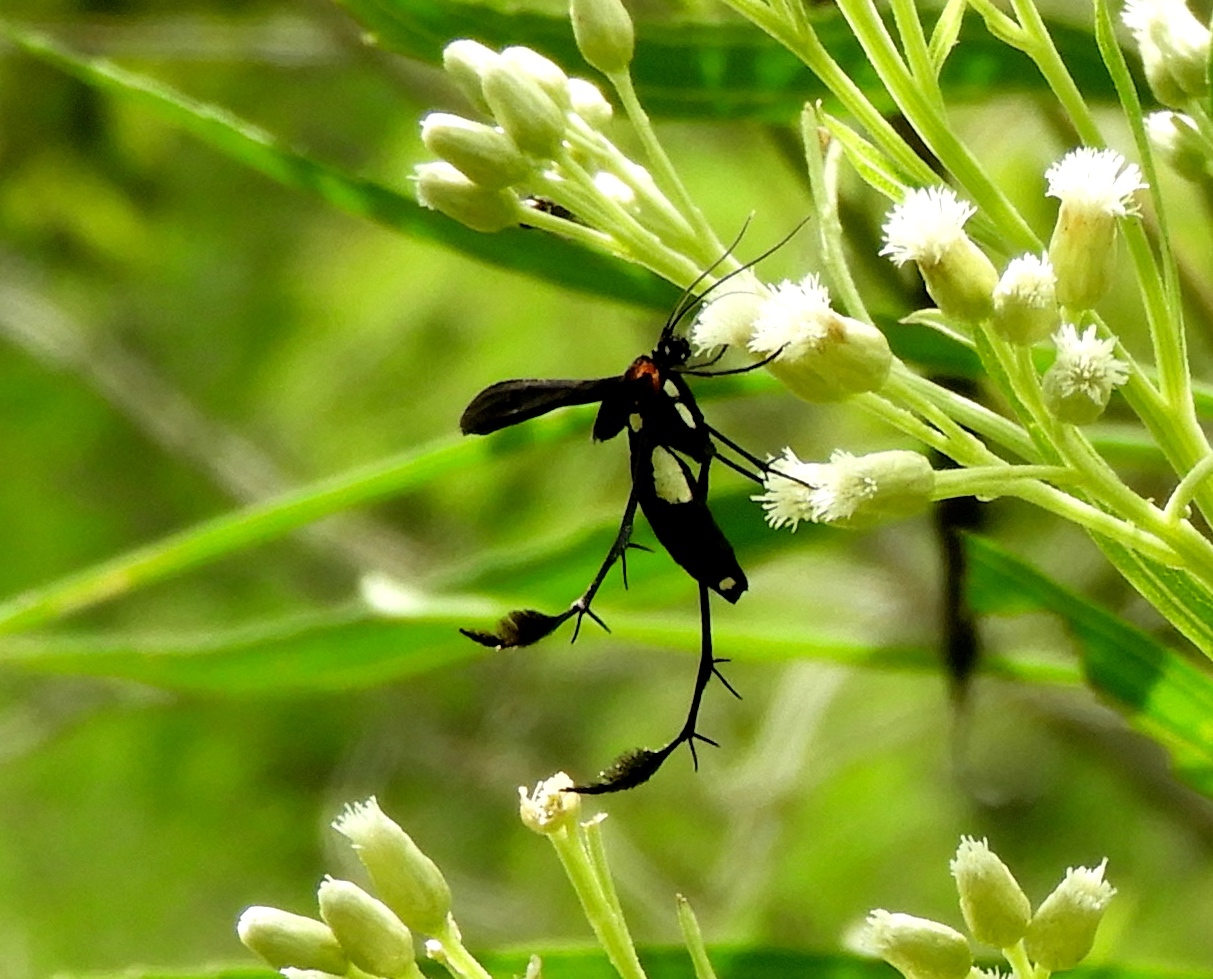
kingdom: Animalia
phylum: Arthropoda
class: Insecta
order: Lepidoptera
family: Pterophoridae
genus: Hellinsia
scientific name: Hellinsia chamelai
